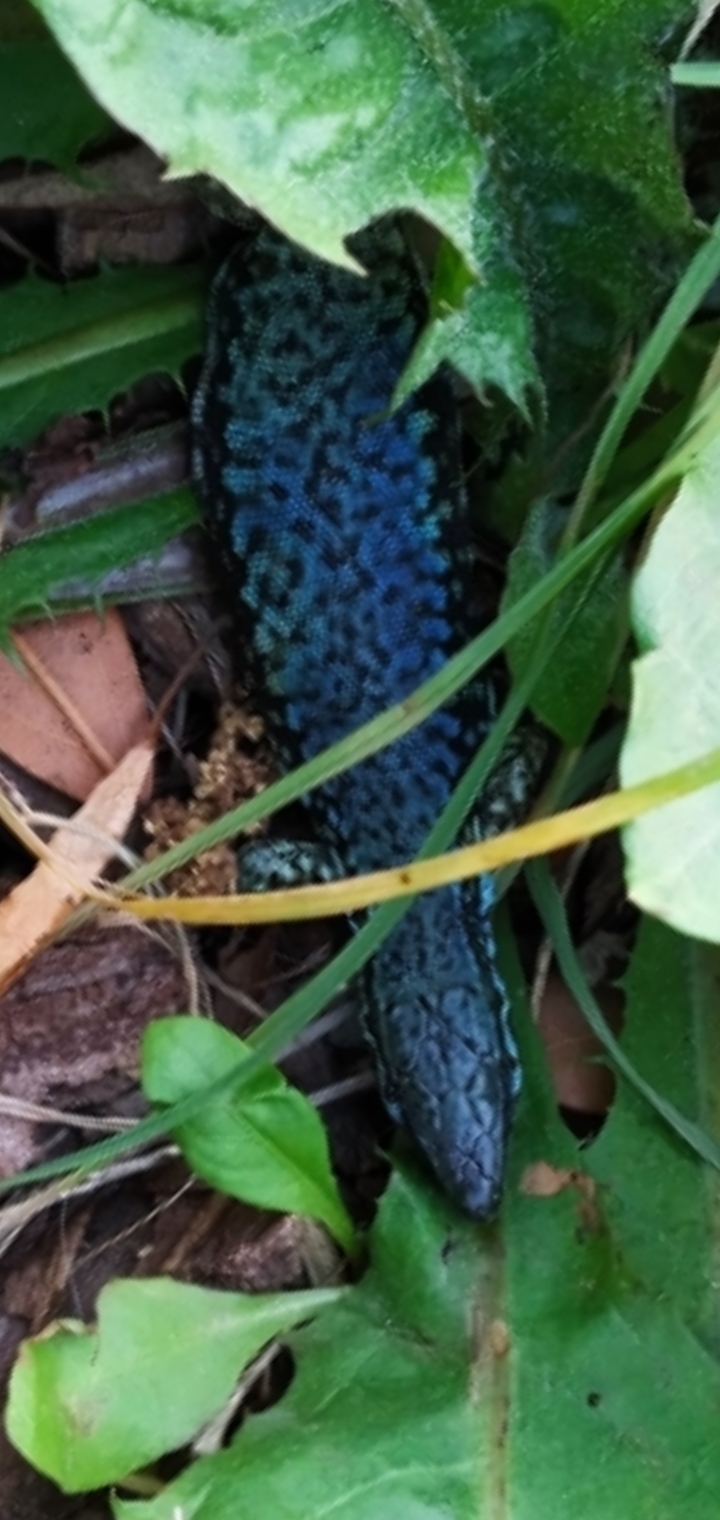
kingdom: Animalia
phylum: Chordata
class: Squamata
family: Lacertidae
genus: Podarcis
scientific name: Podarcis muralis
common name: Common wall lizard
